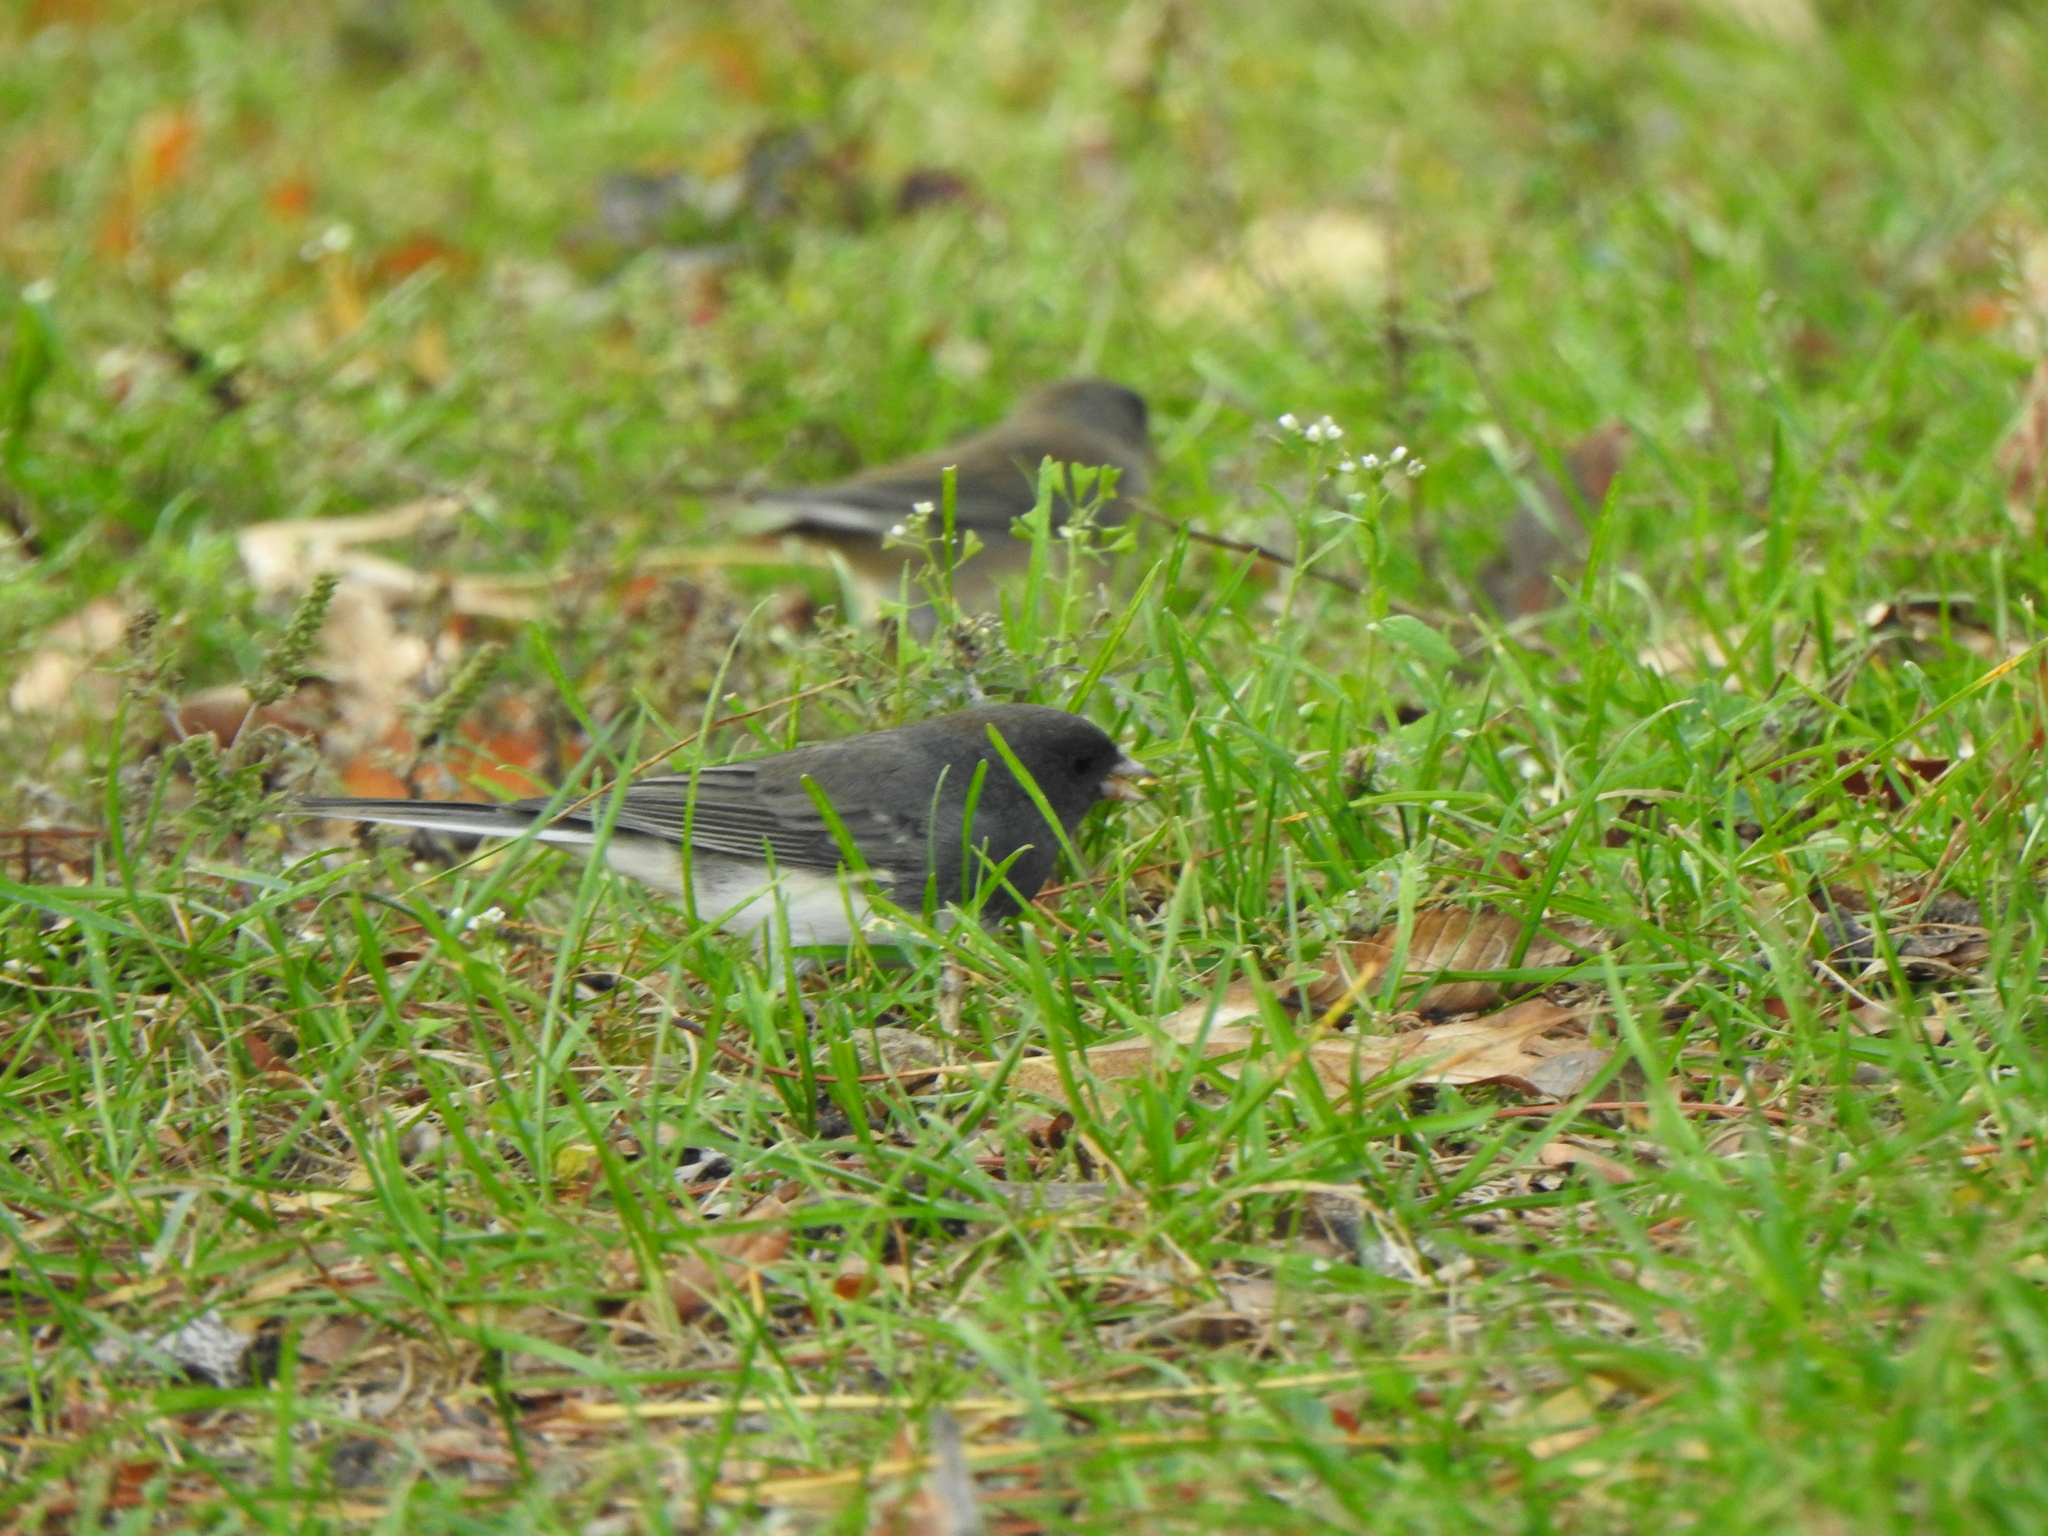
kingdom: Animalia
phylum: Chordata
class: Aves
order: Passeriformes
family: Passerellidae
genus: Junco
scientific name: Junco hyemalis
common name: Dark-eyed junco
